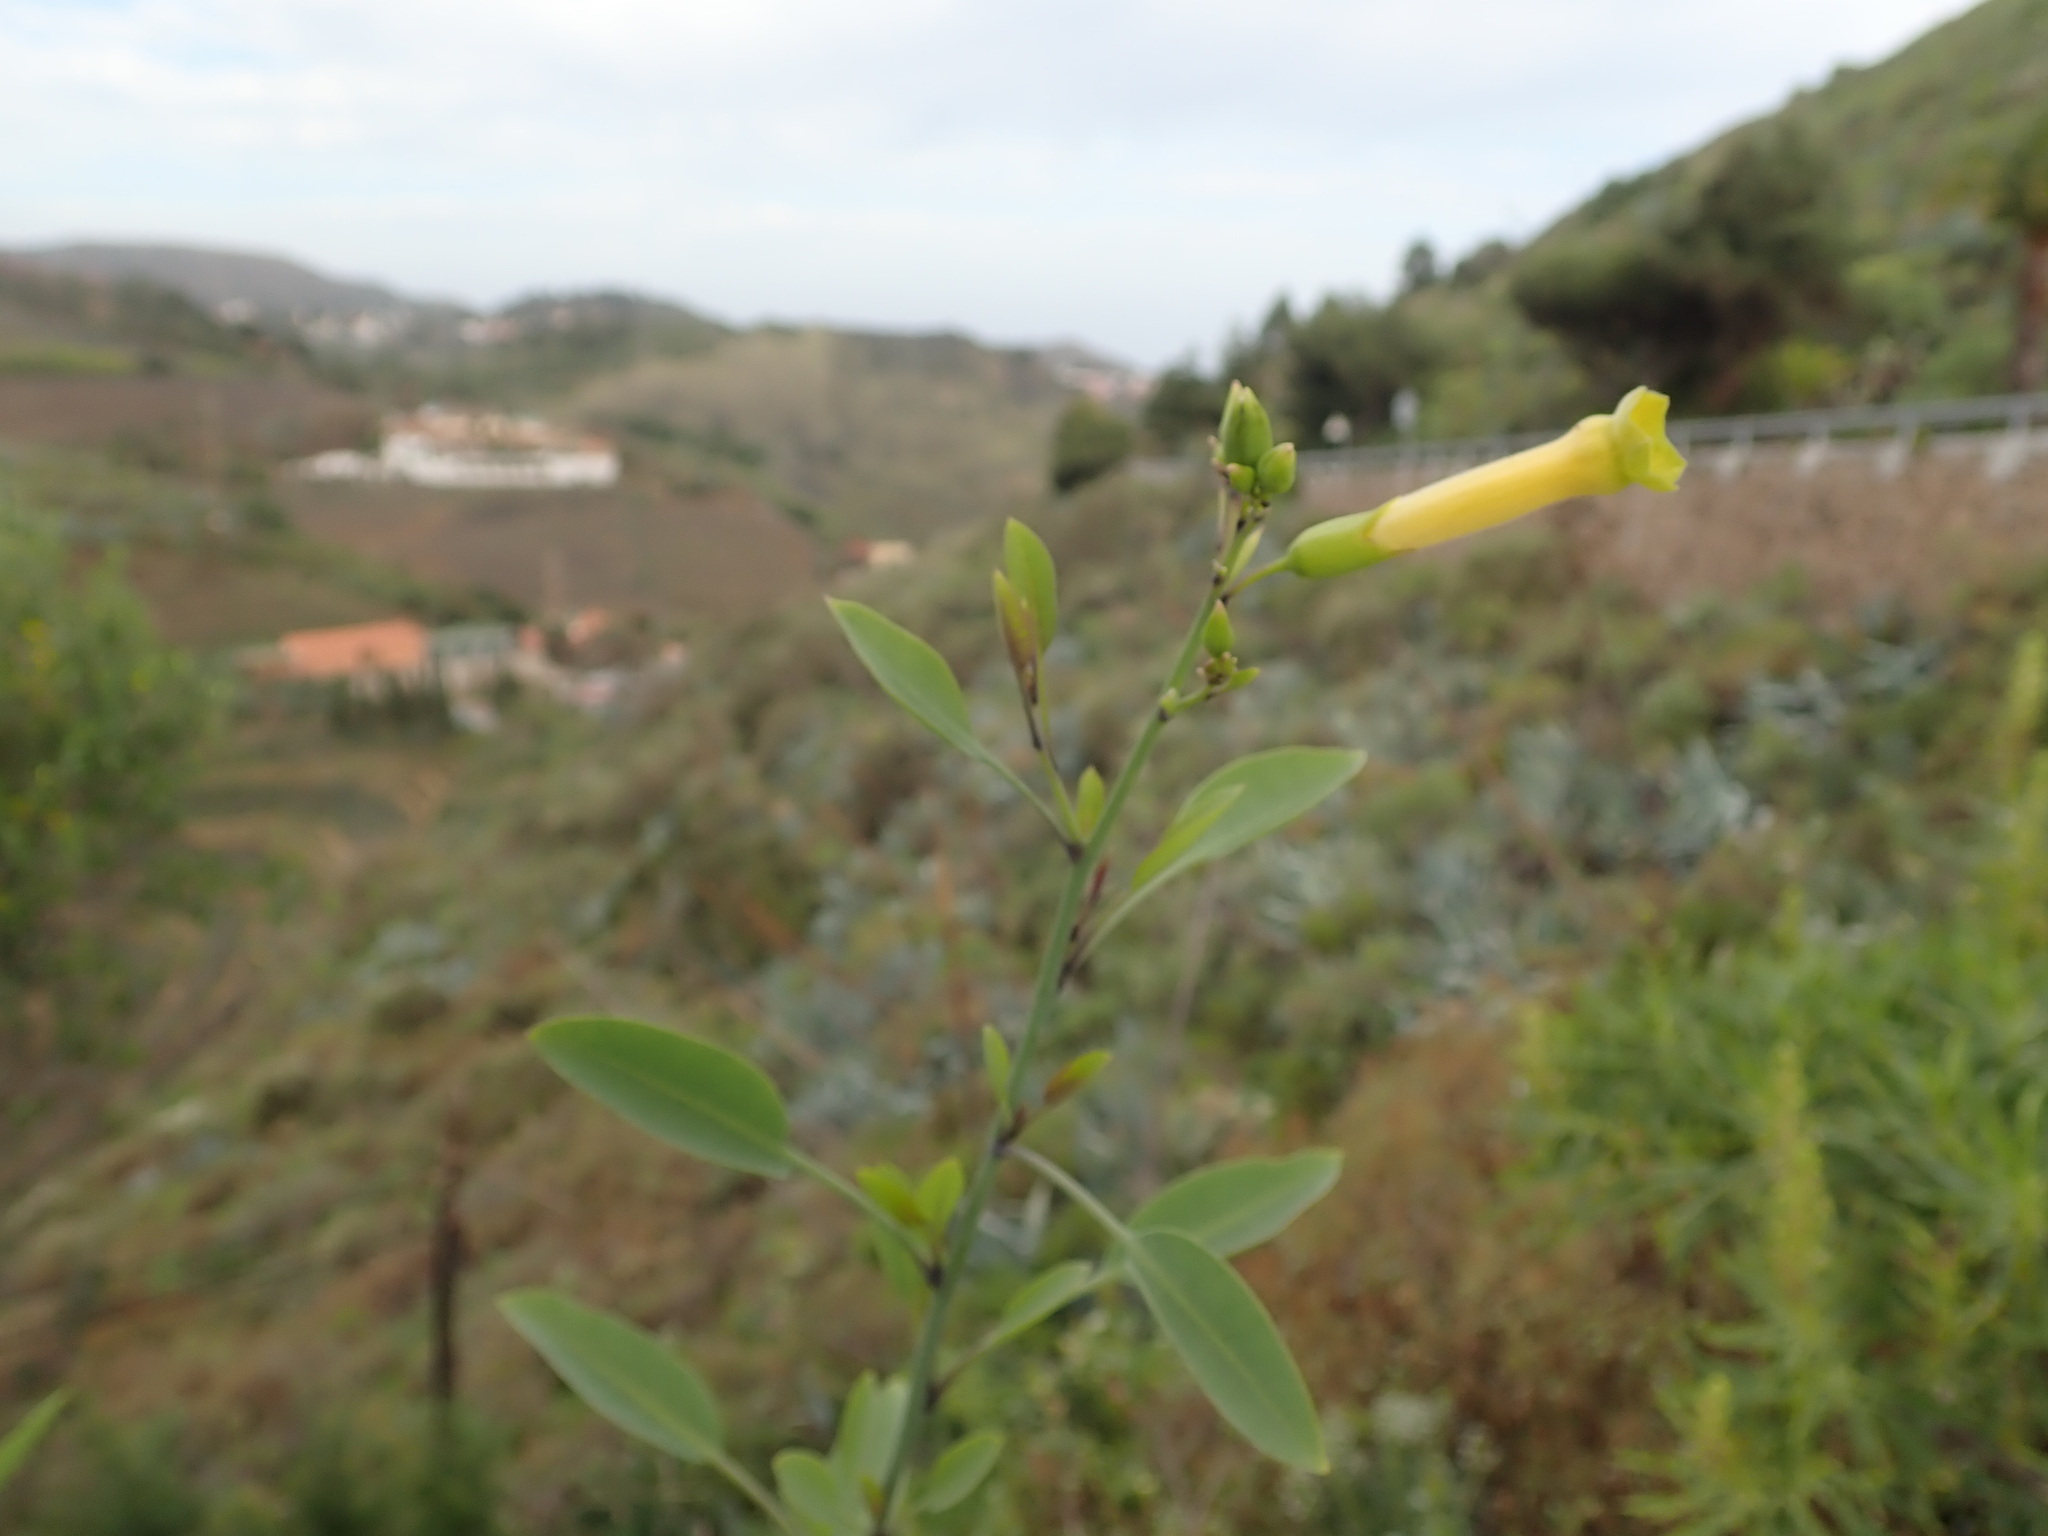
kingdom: Plantae
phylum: Tracheophyta
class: Magnoliopsida
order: Solanales
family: Solanaceae
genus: Nicotiana
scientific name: Nicotiana glauca
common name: Tree tobacco
